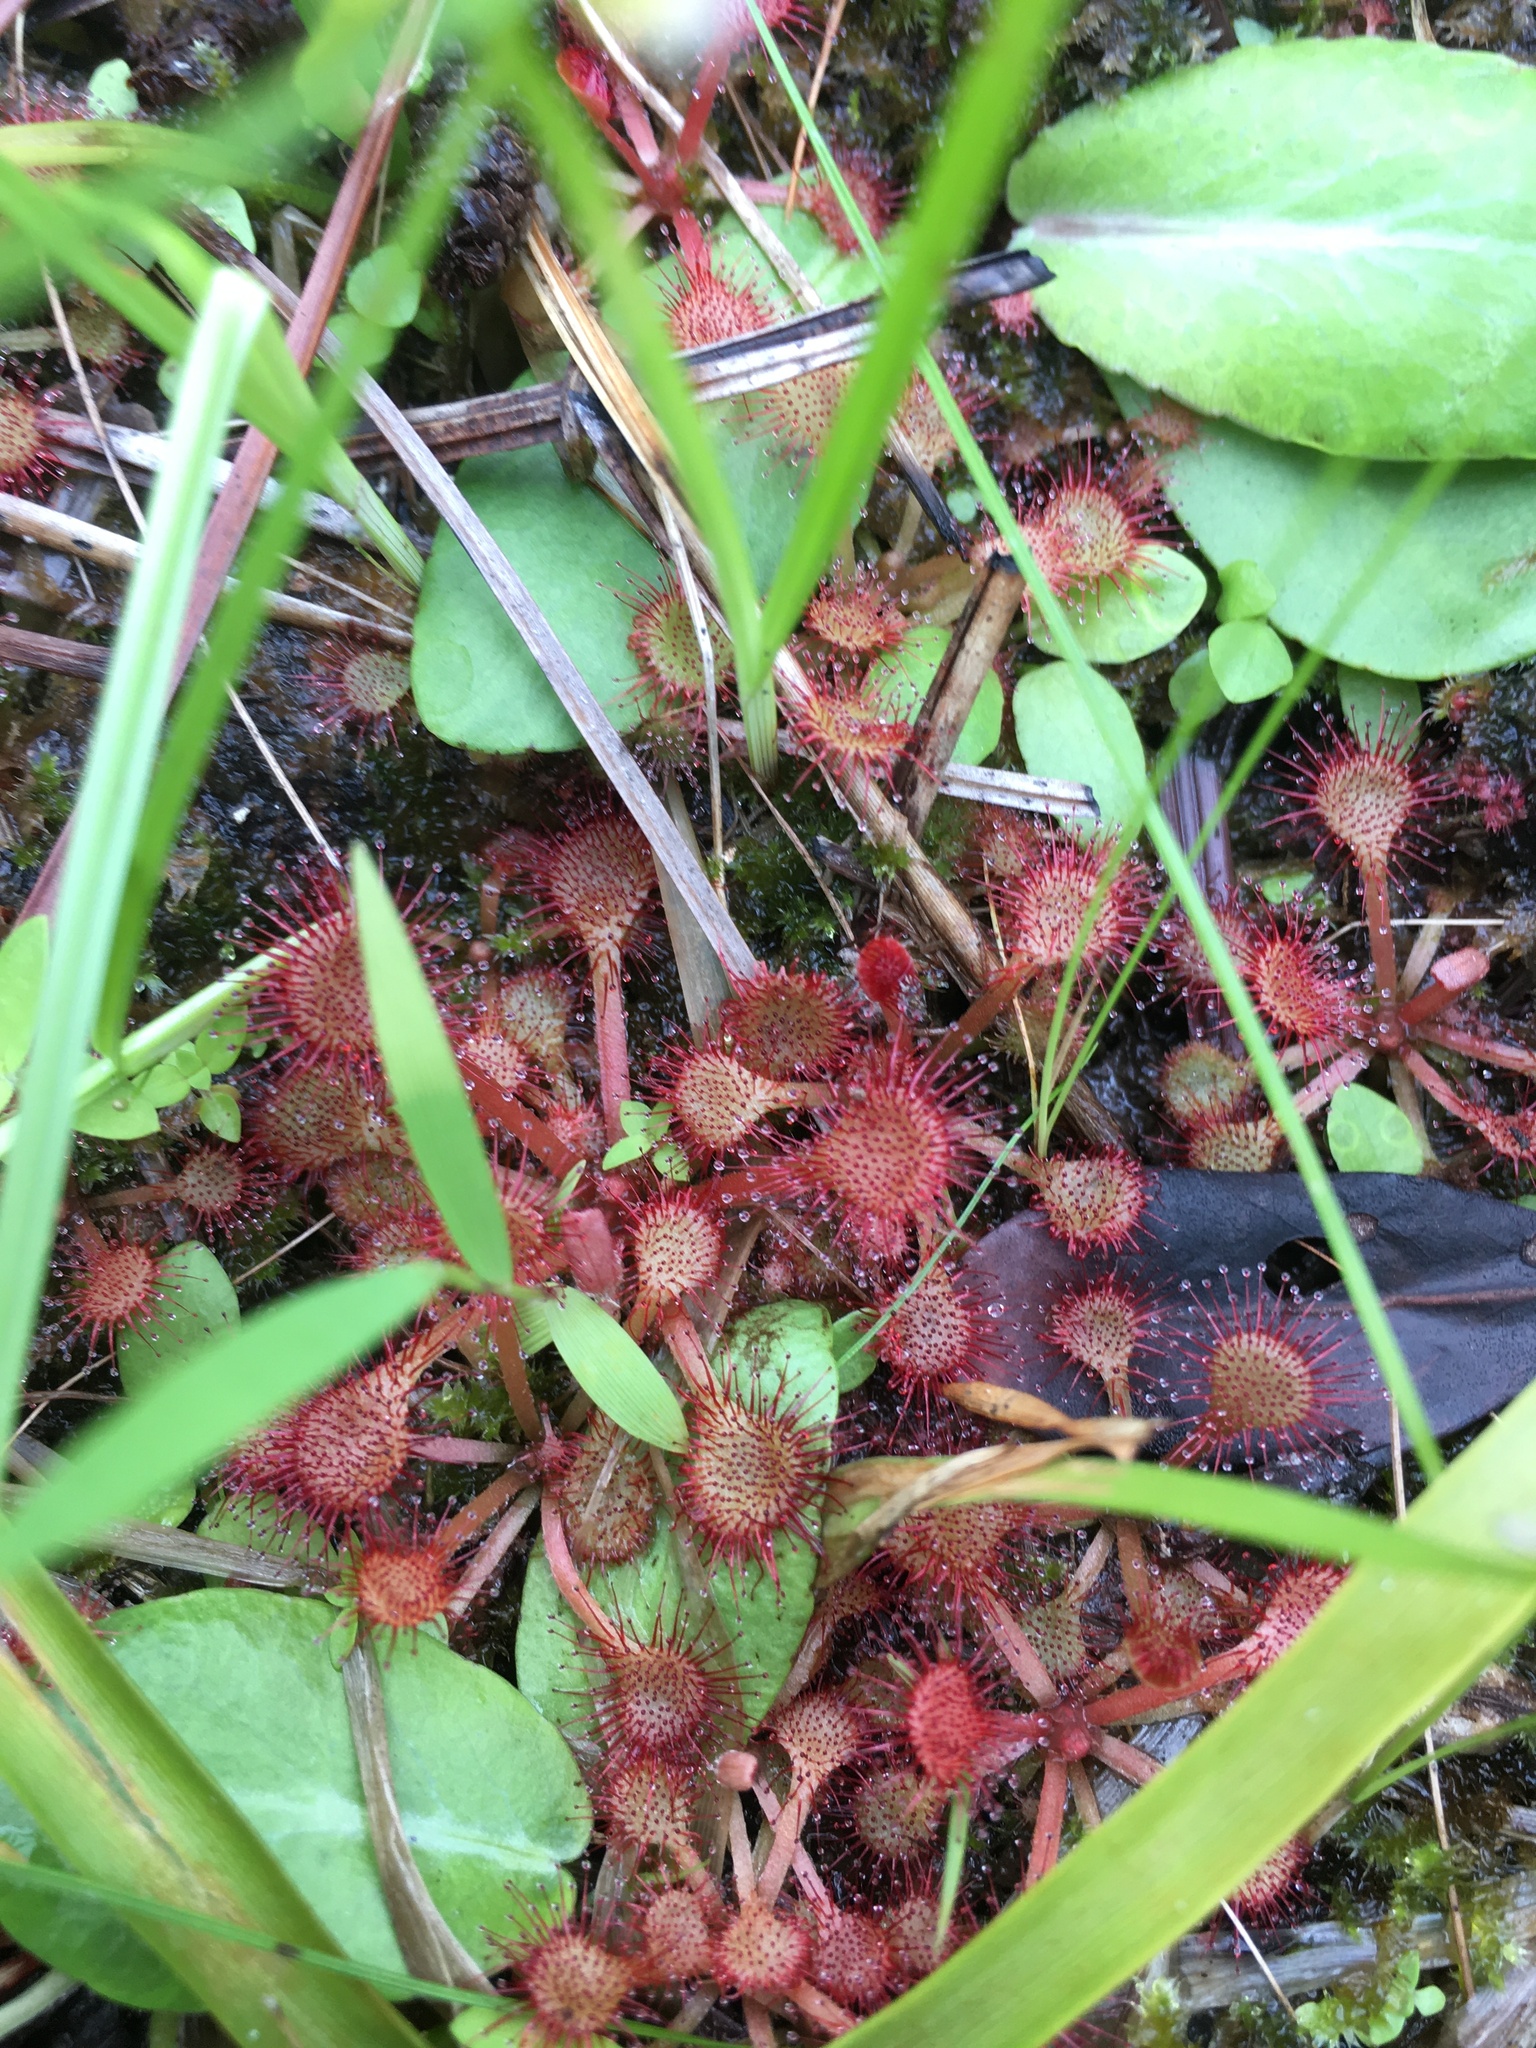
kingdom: Plantae
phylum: Tracheophyta
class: Magnoliopsida
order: Caryophyllales
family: Droseraceae
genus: Drosera
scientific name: Drosera capillaris
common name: Pink sundew
